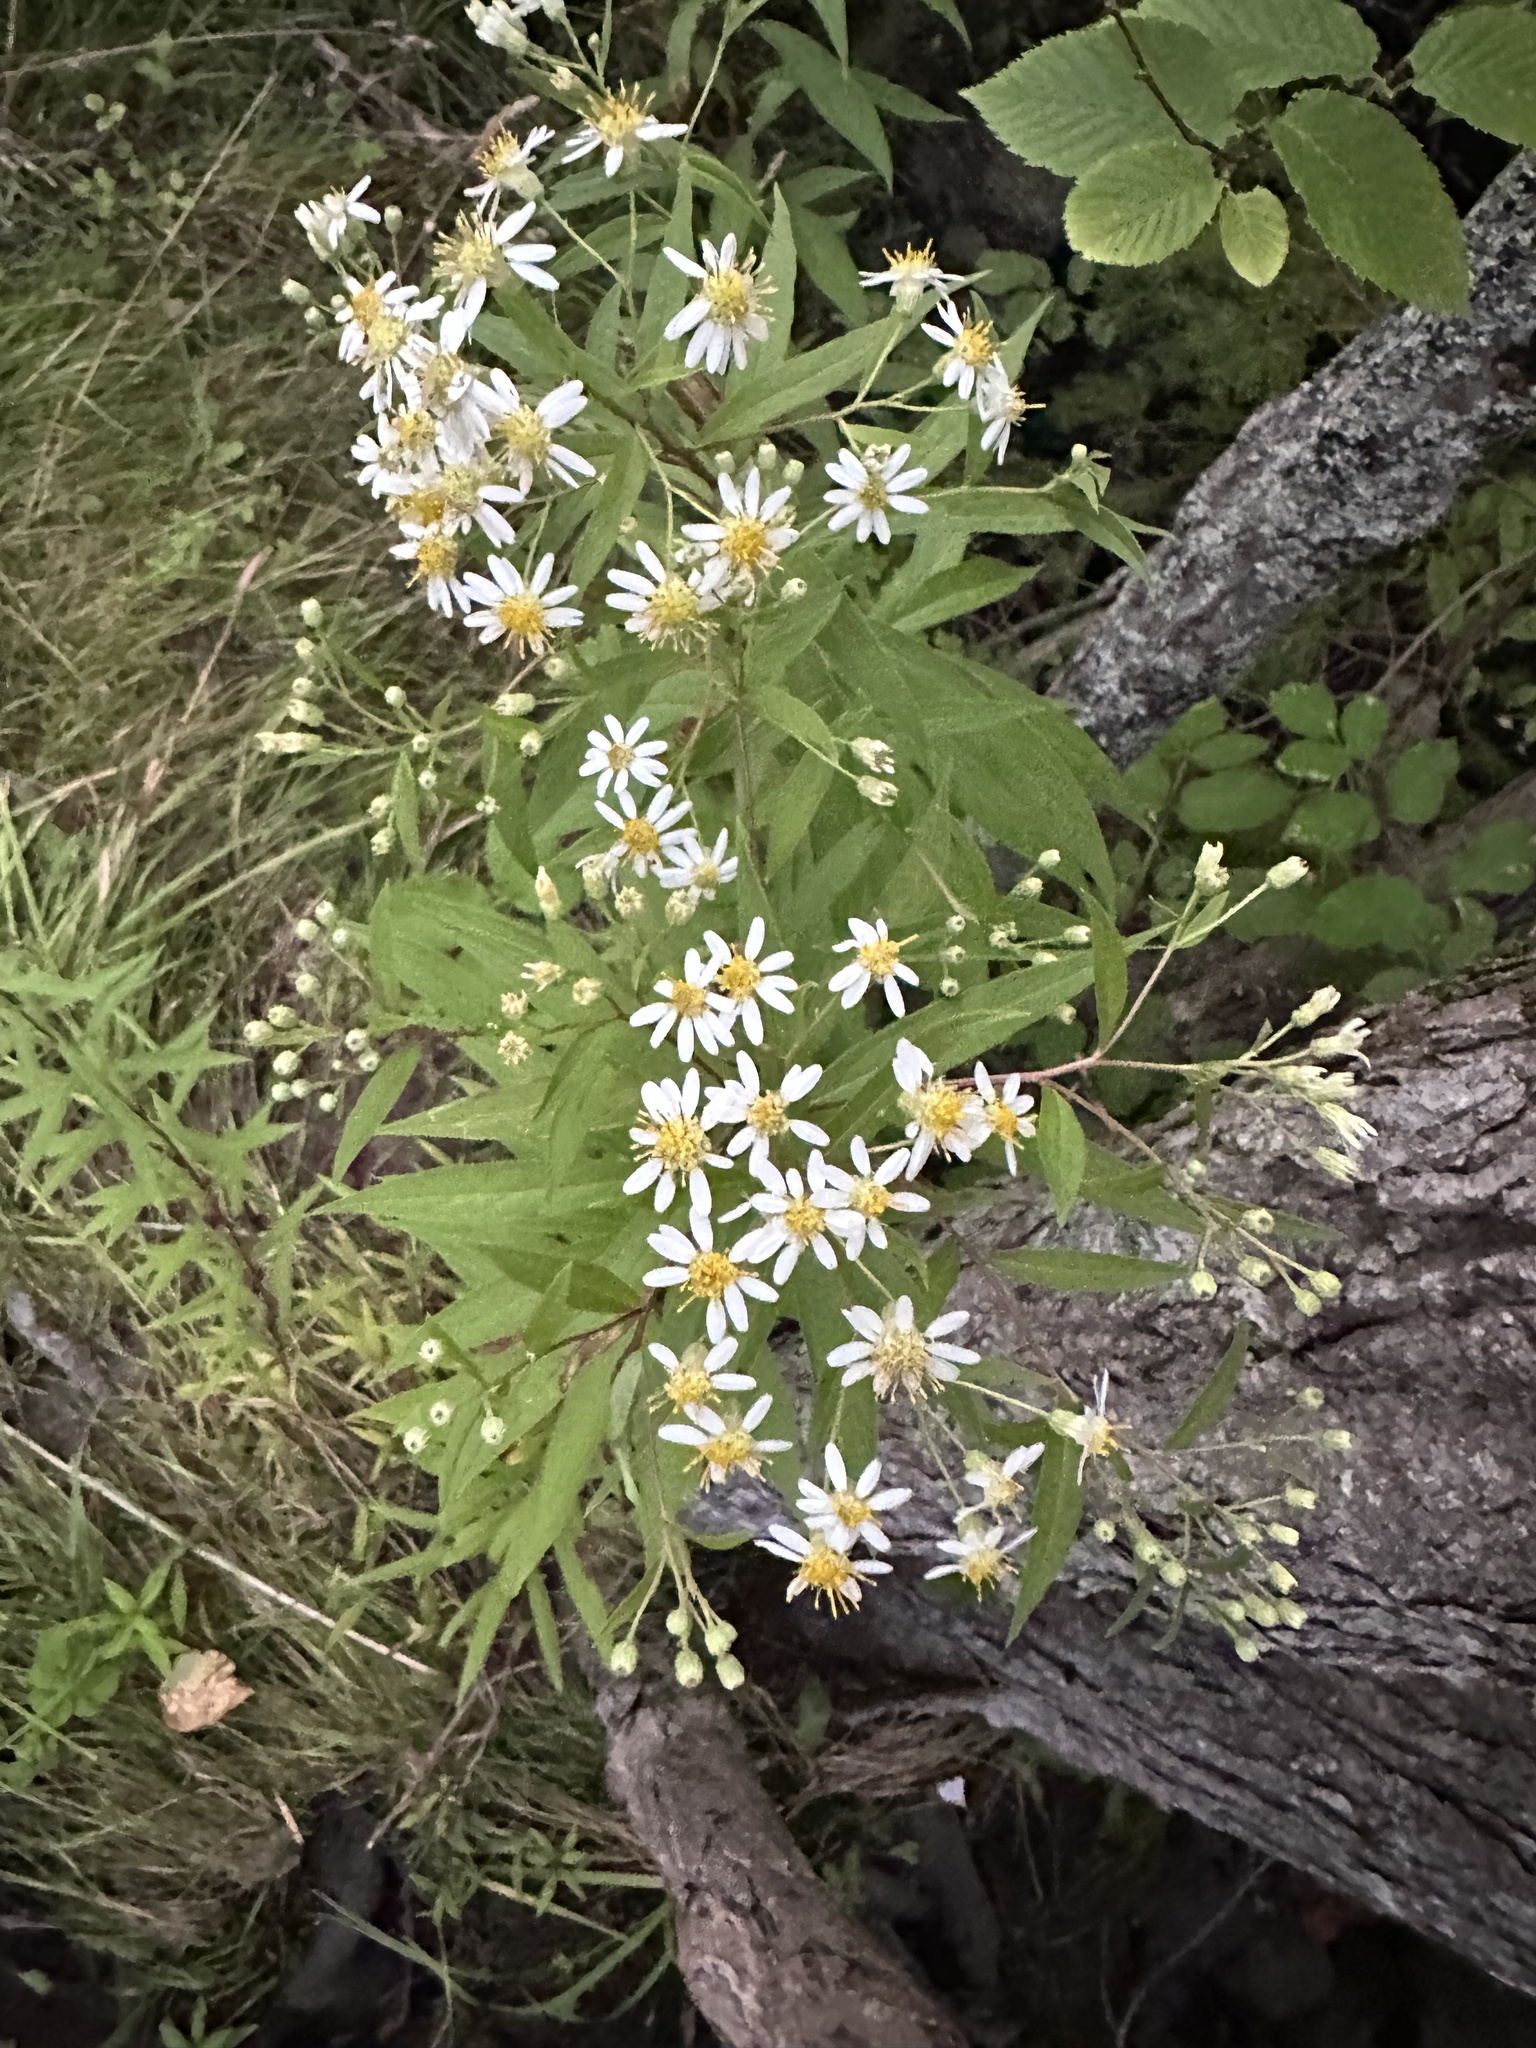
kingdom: Plantae
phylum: Tracheophyta
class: Magnoliopsida
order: Asterales
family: Asteraceae
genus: Doellingeria
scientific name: Doellingeria umbellata
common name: Flat-top white aster
